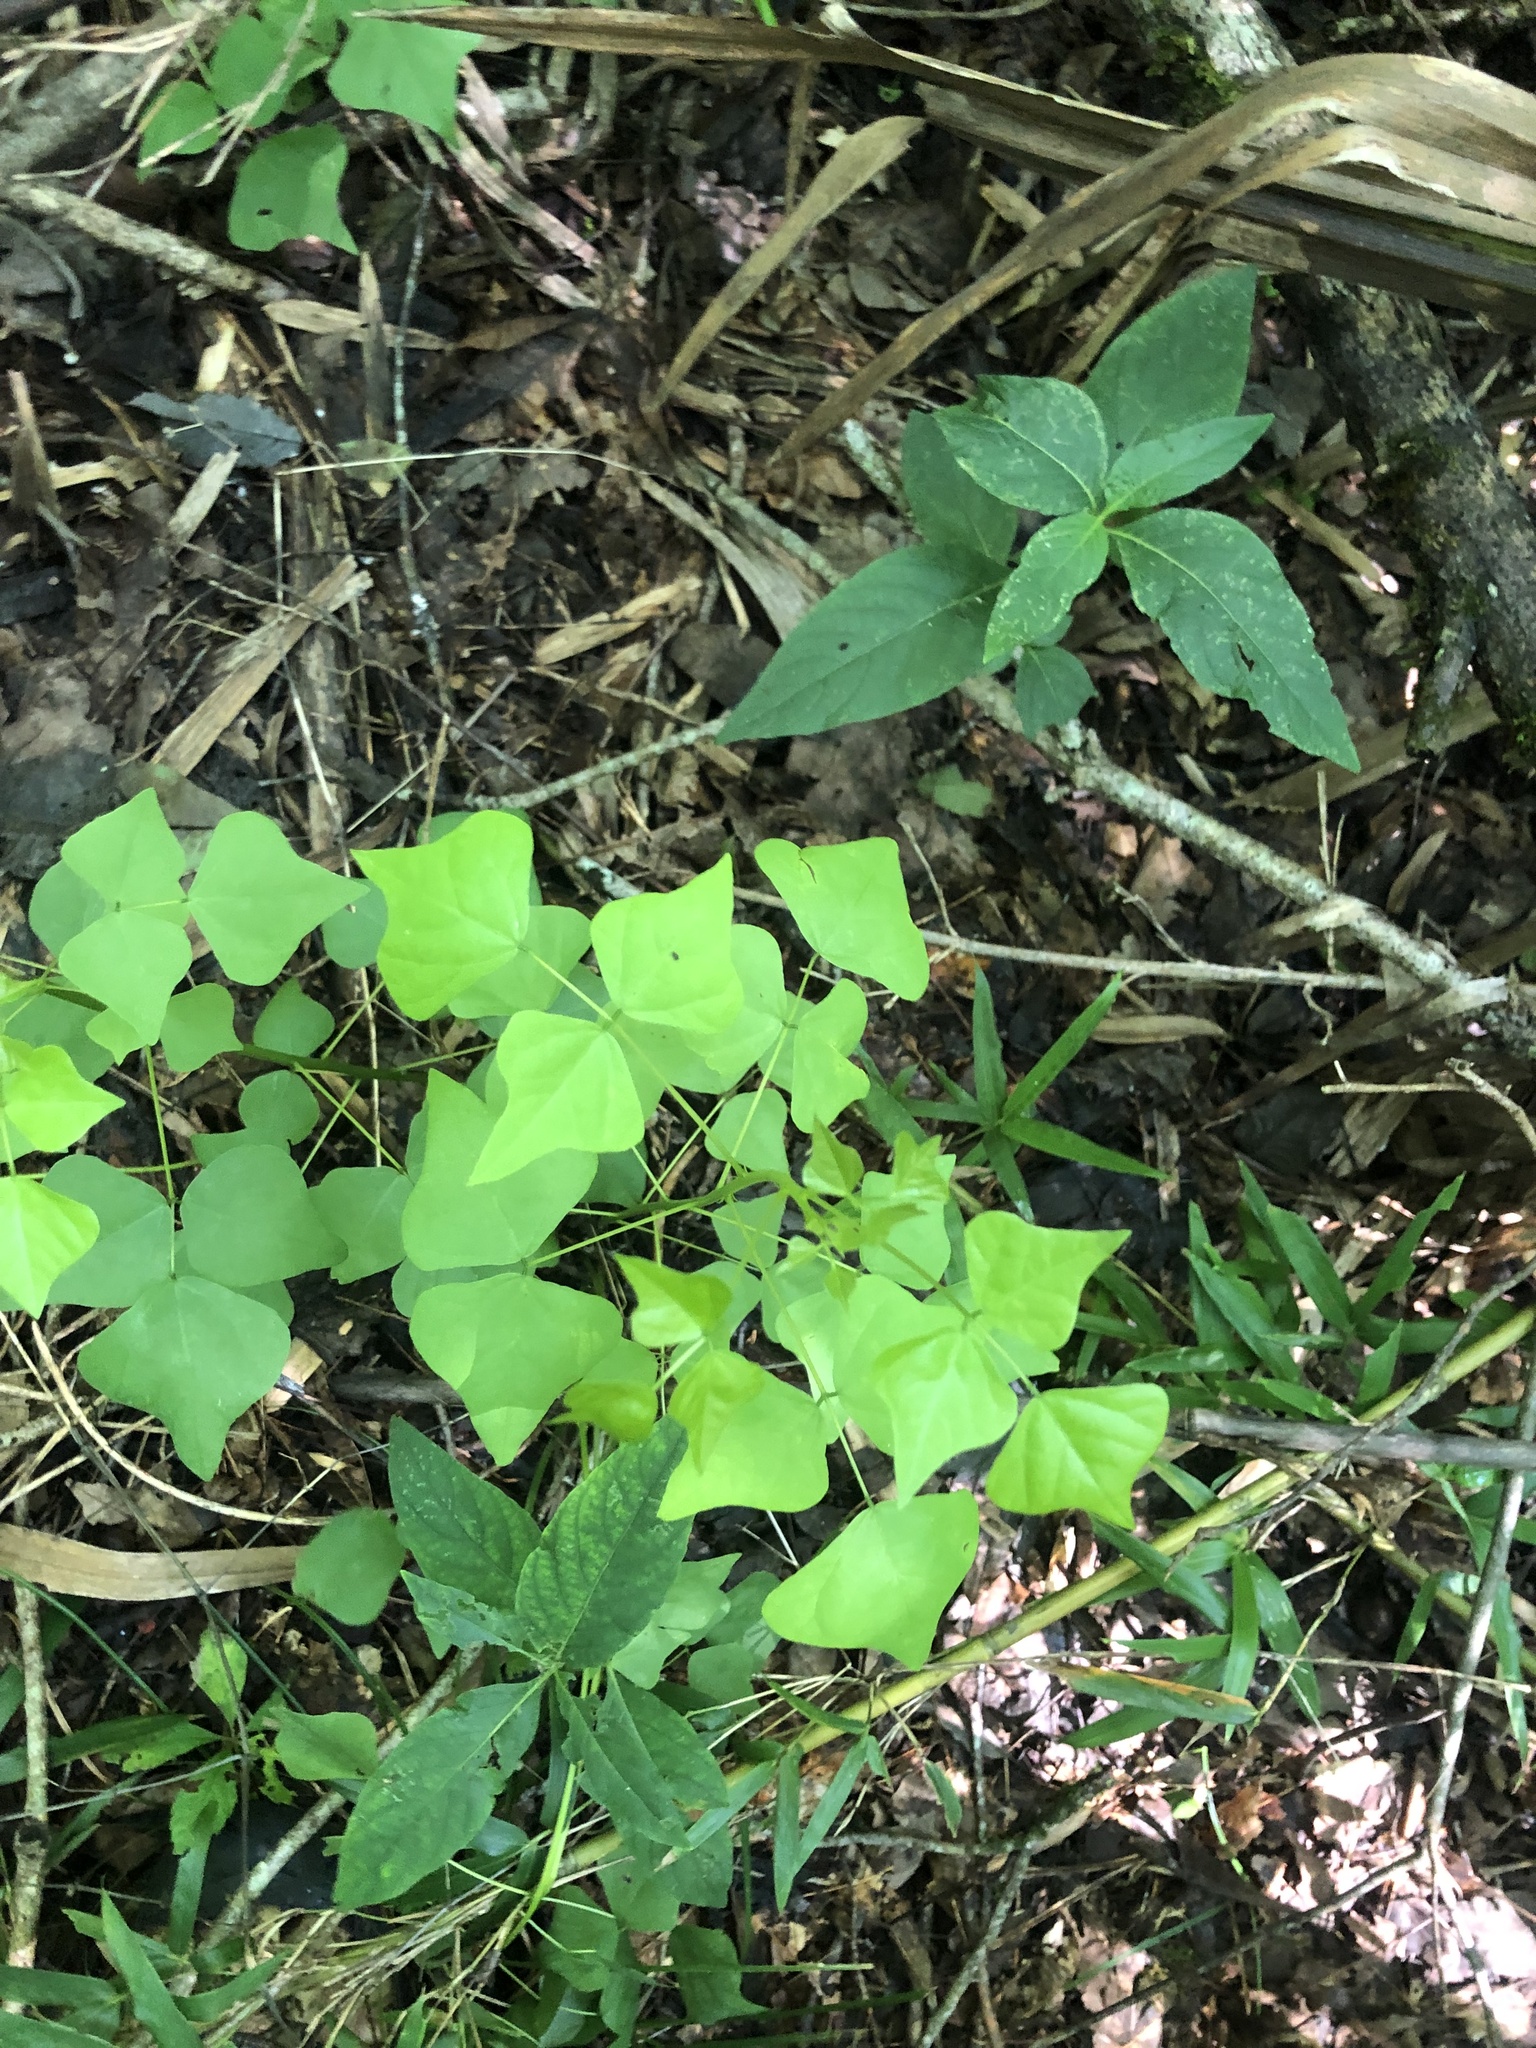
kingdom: Plantae
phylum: Tracheophyta
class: Magnoliopsida
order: Fabales
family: Fabaceae
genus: Erythrina
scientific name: Erythrina herbacea
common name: Coral-bean
